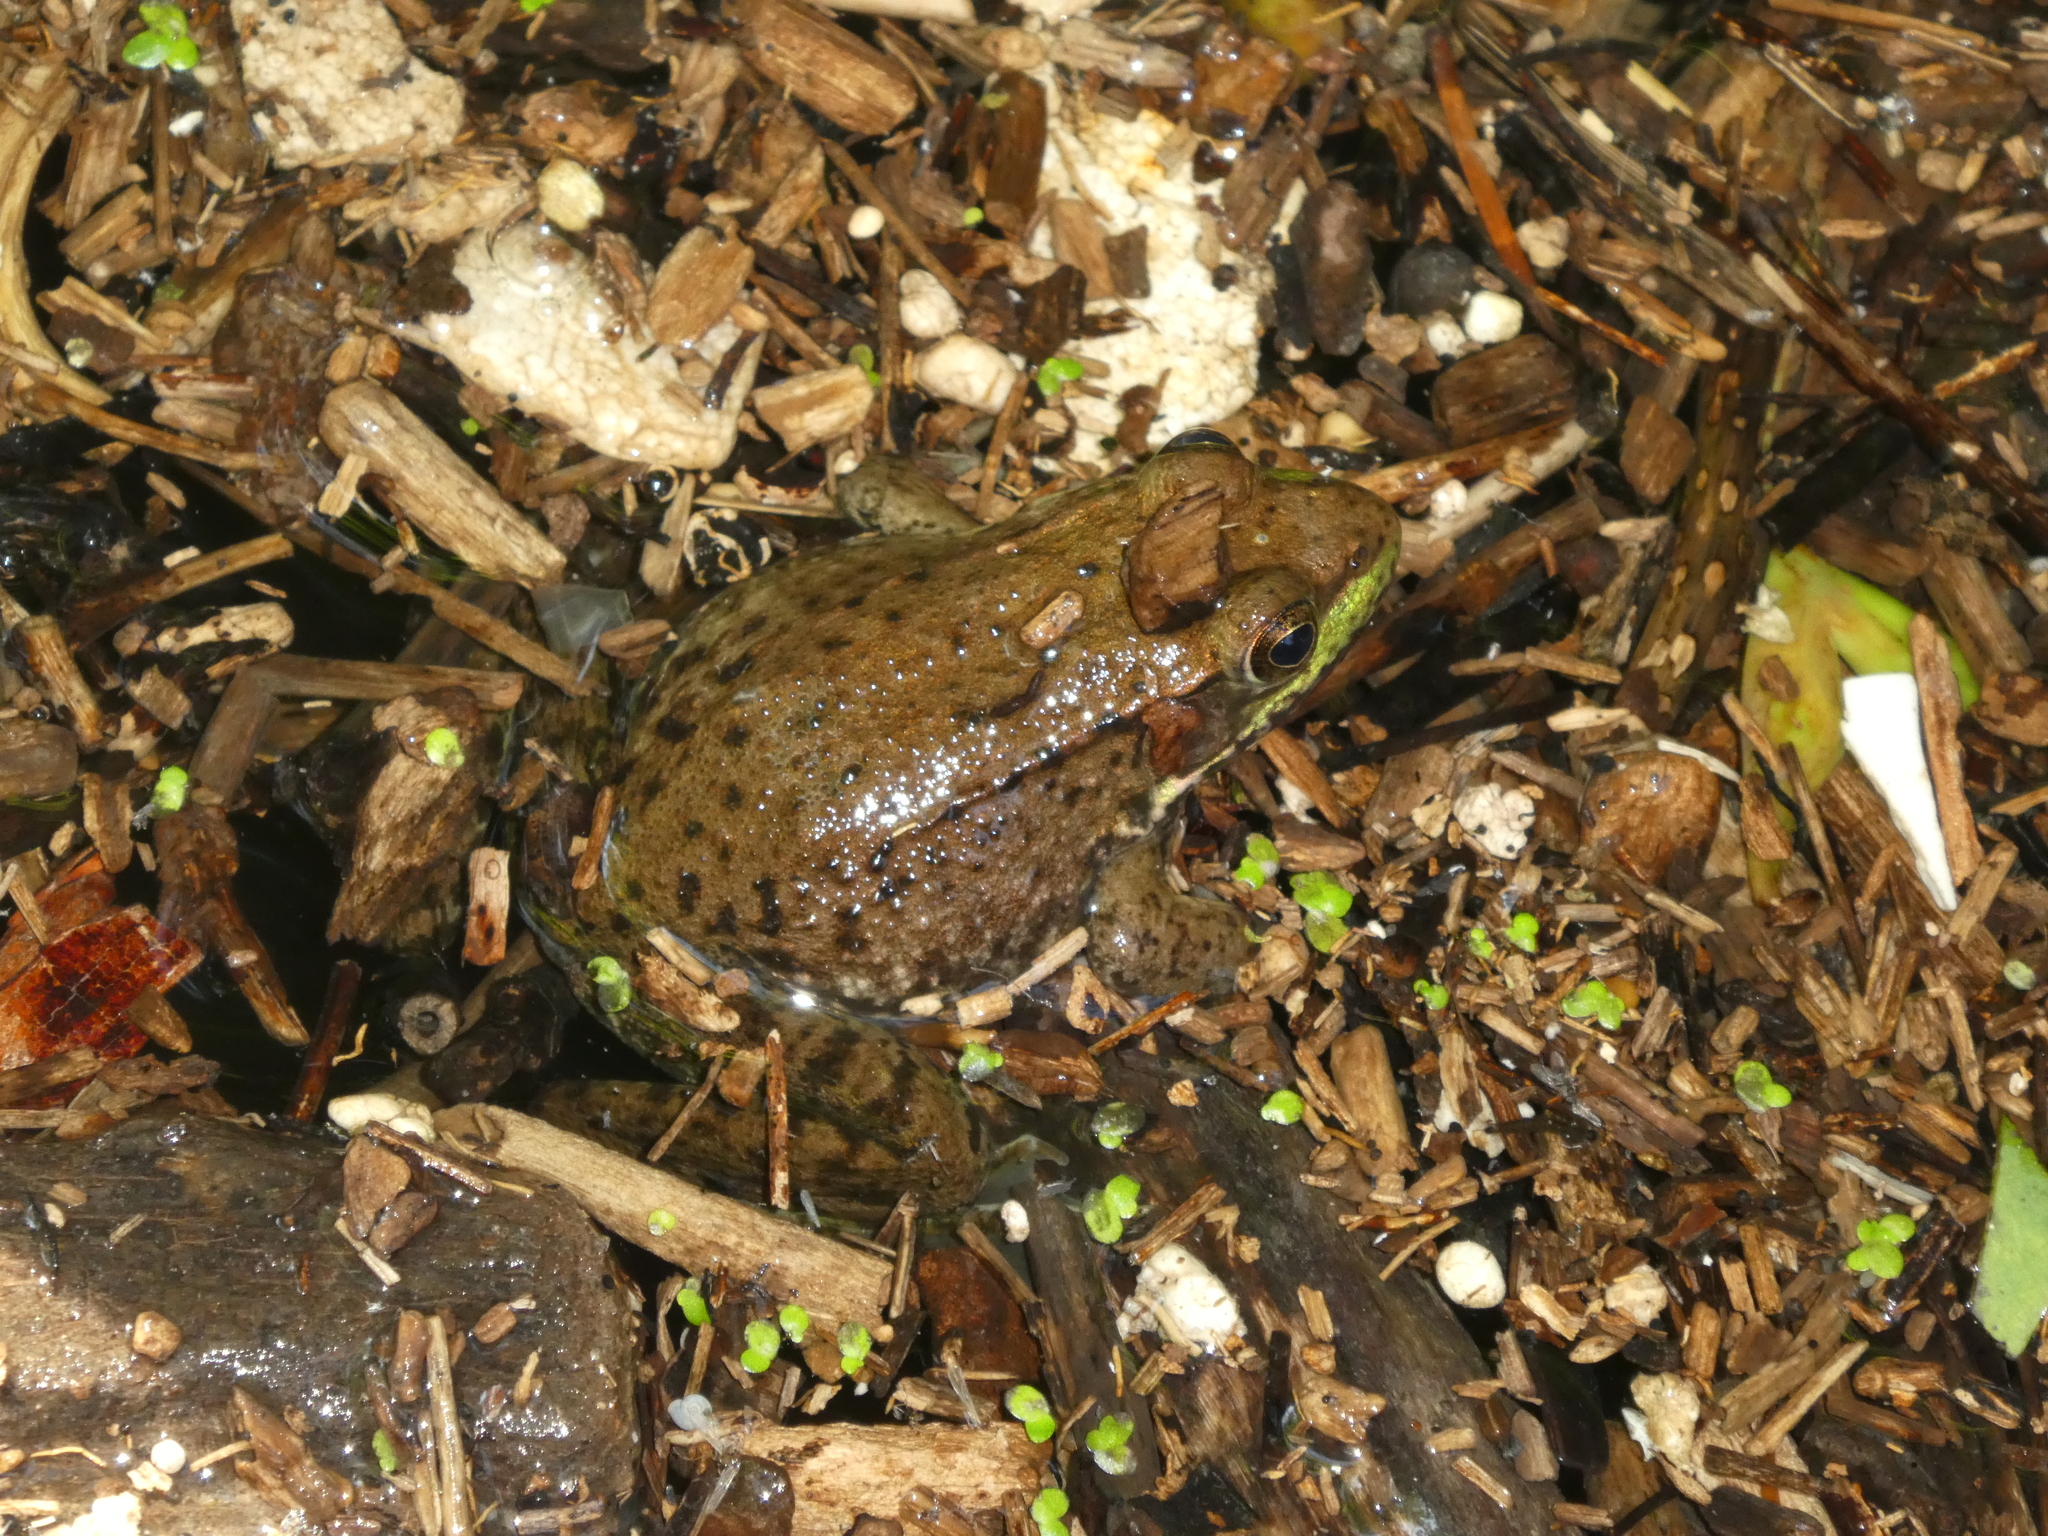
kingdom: Animalia
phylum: Chordata
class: Amphibia
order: Anura
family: Ranidae
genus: Lithobates
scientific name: Lithobates clamitans
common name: Green frog
